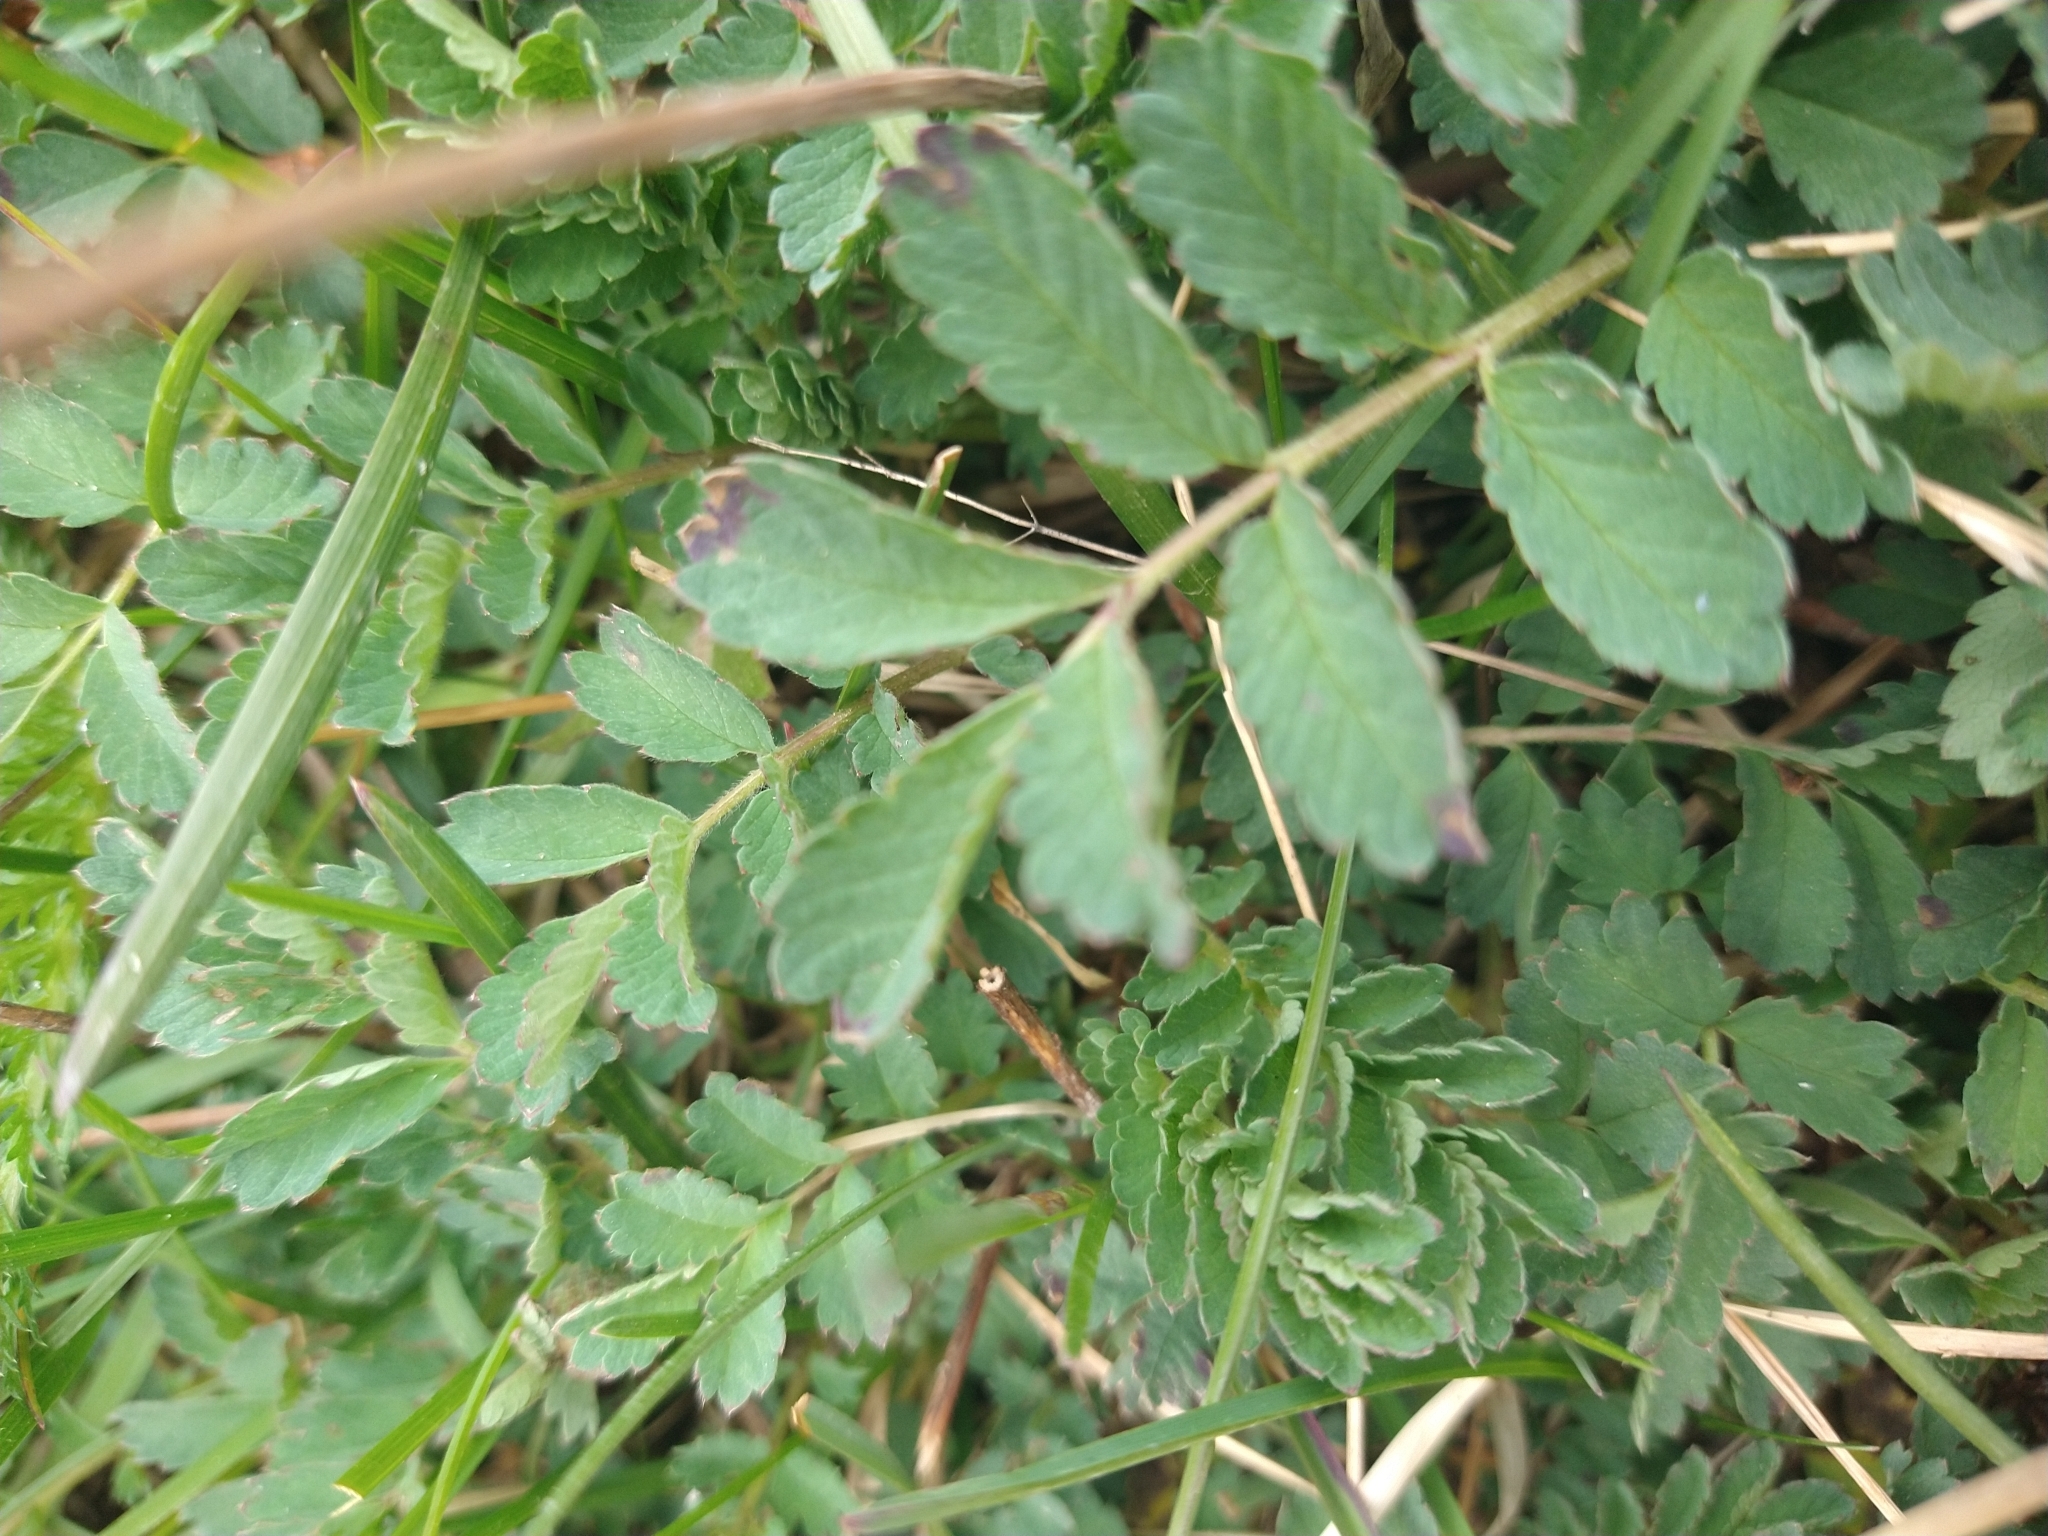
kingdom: Plantae
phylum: Tracheophyta
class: Magnoliopsida
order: Rosales
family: Rosaceae
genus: Acaena
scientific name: Acaena magellanica
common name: New zealand burr
